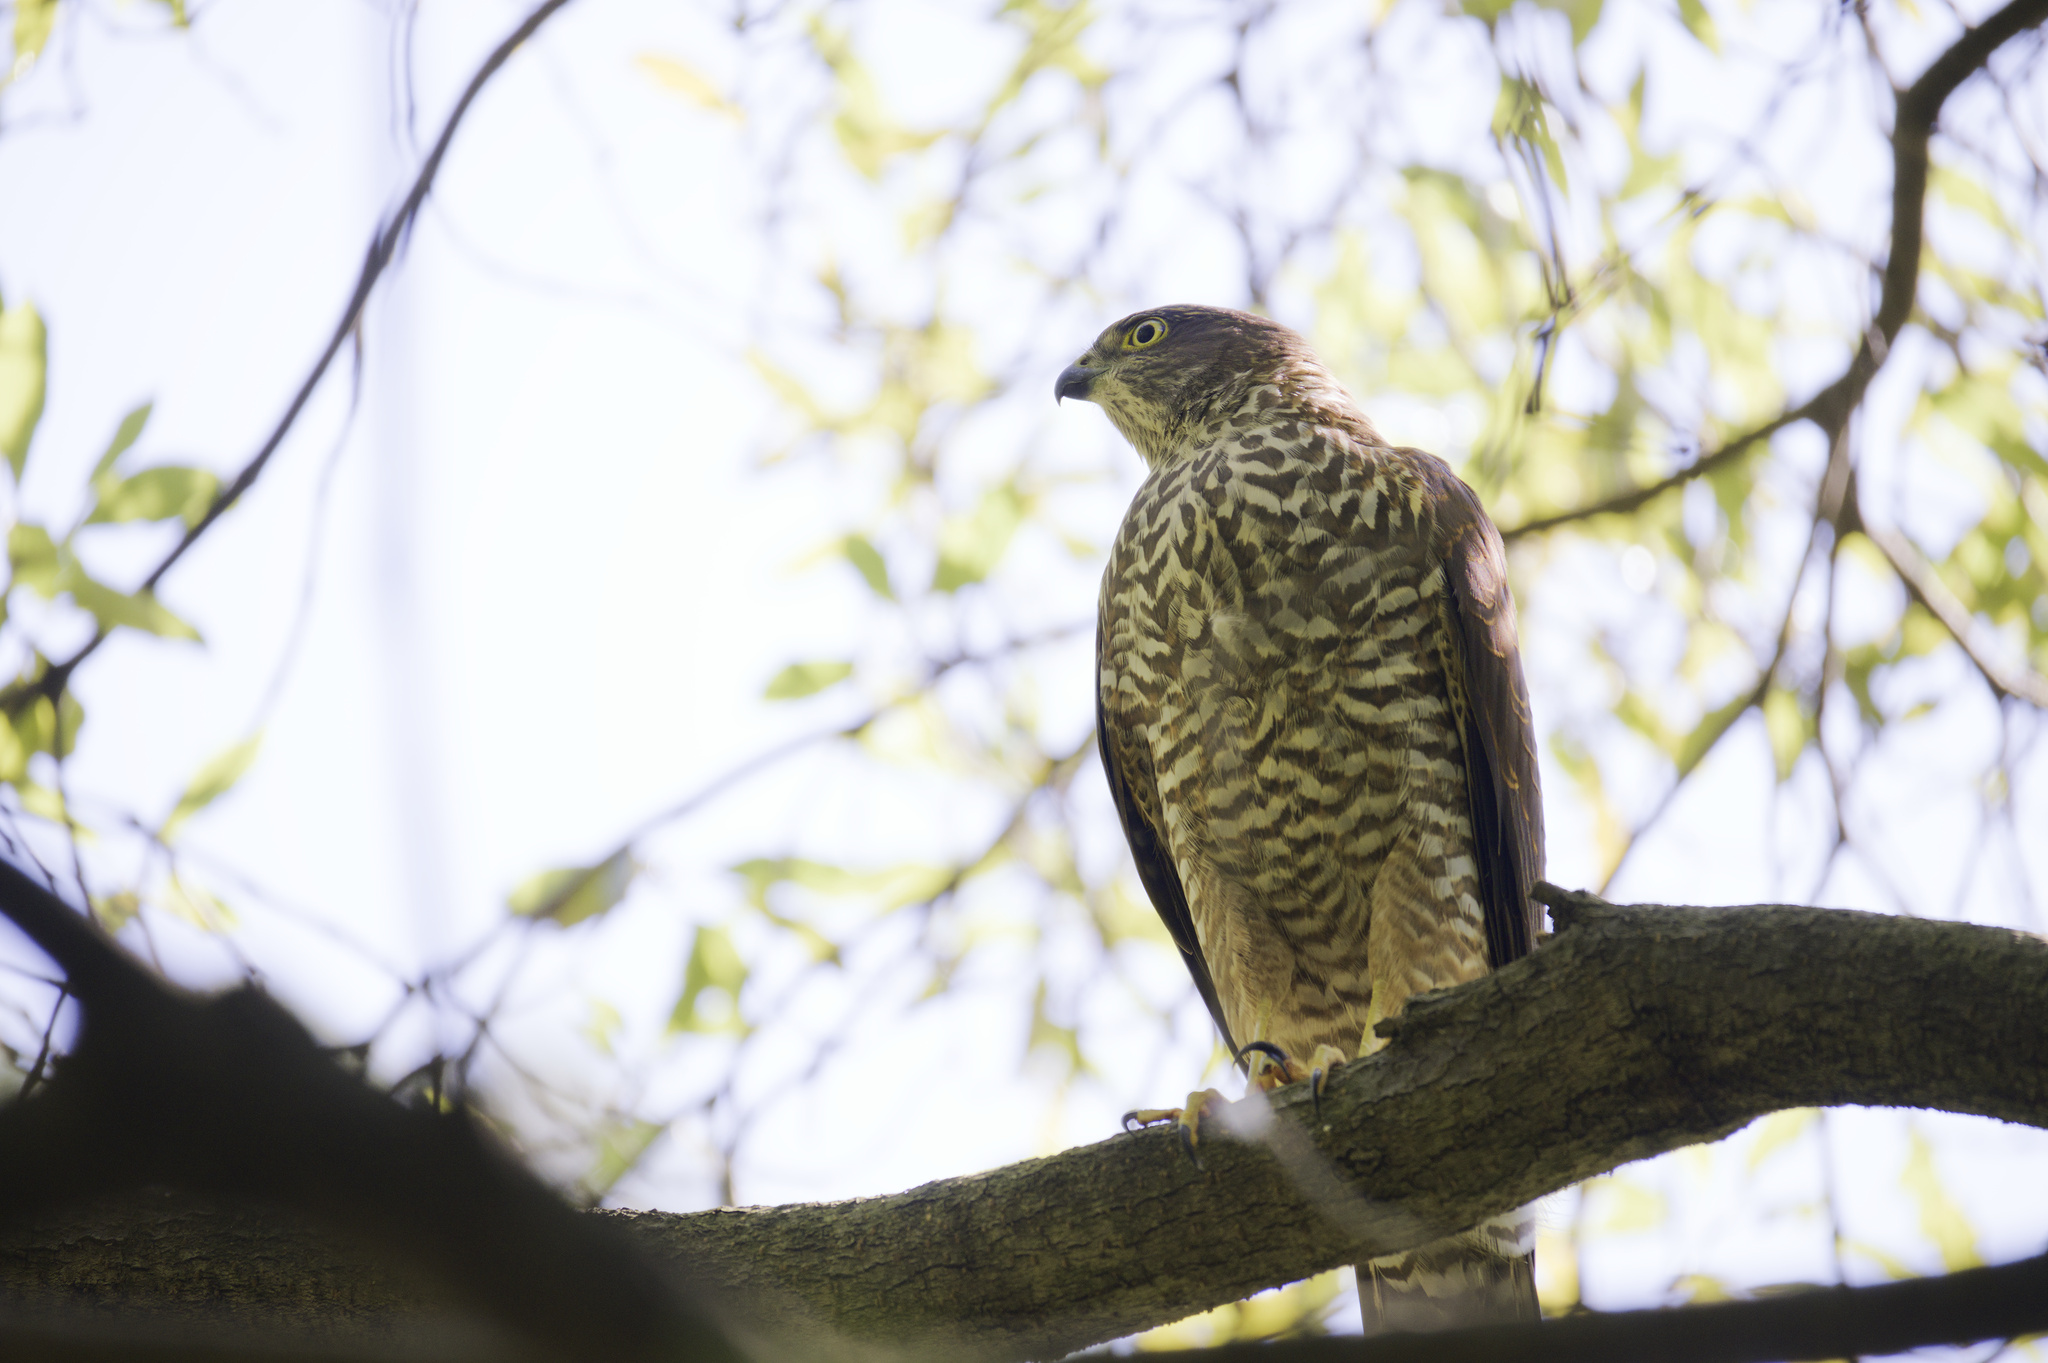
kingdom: Animalia
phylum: Chordata
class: Aves
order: Accipitriformes
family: Accipitridae
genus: Accipiter
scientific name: Accipiter cirrocephalus
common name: Collared sparrowhawk
